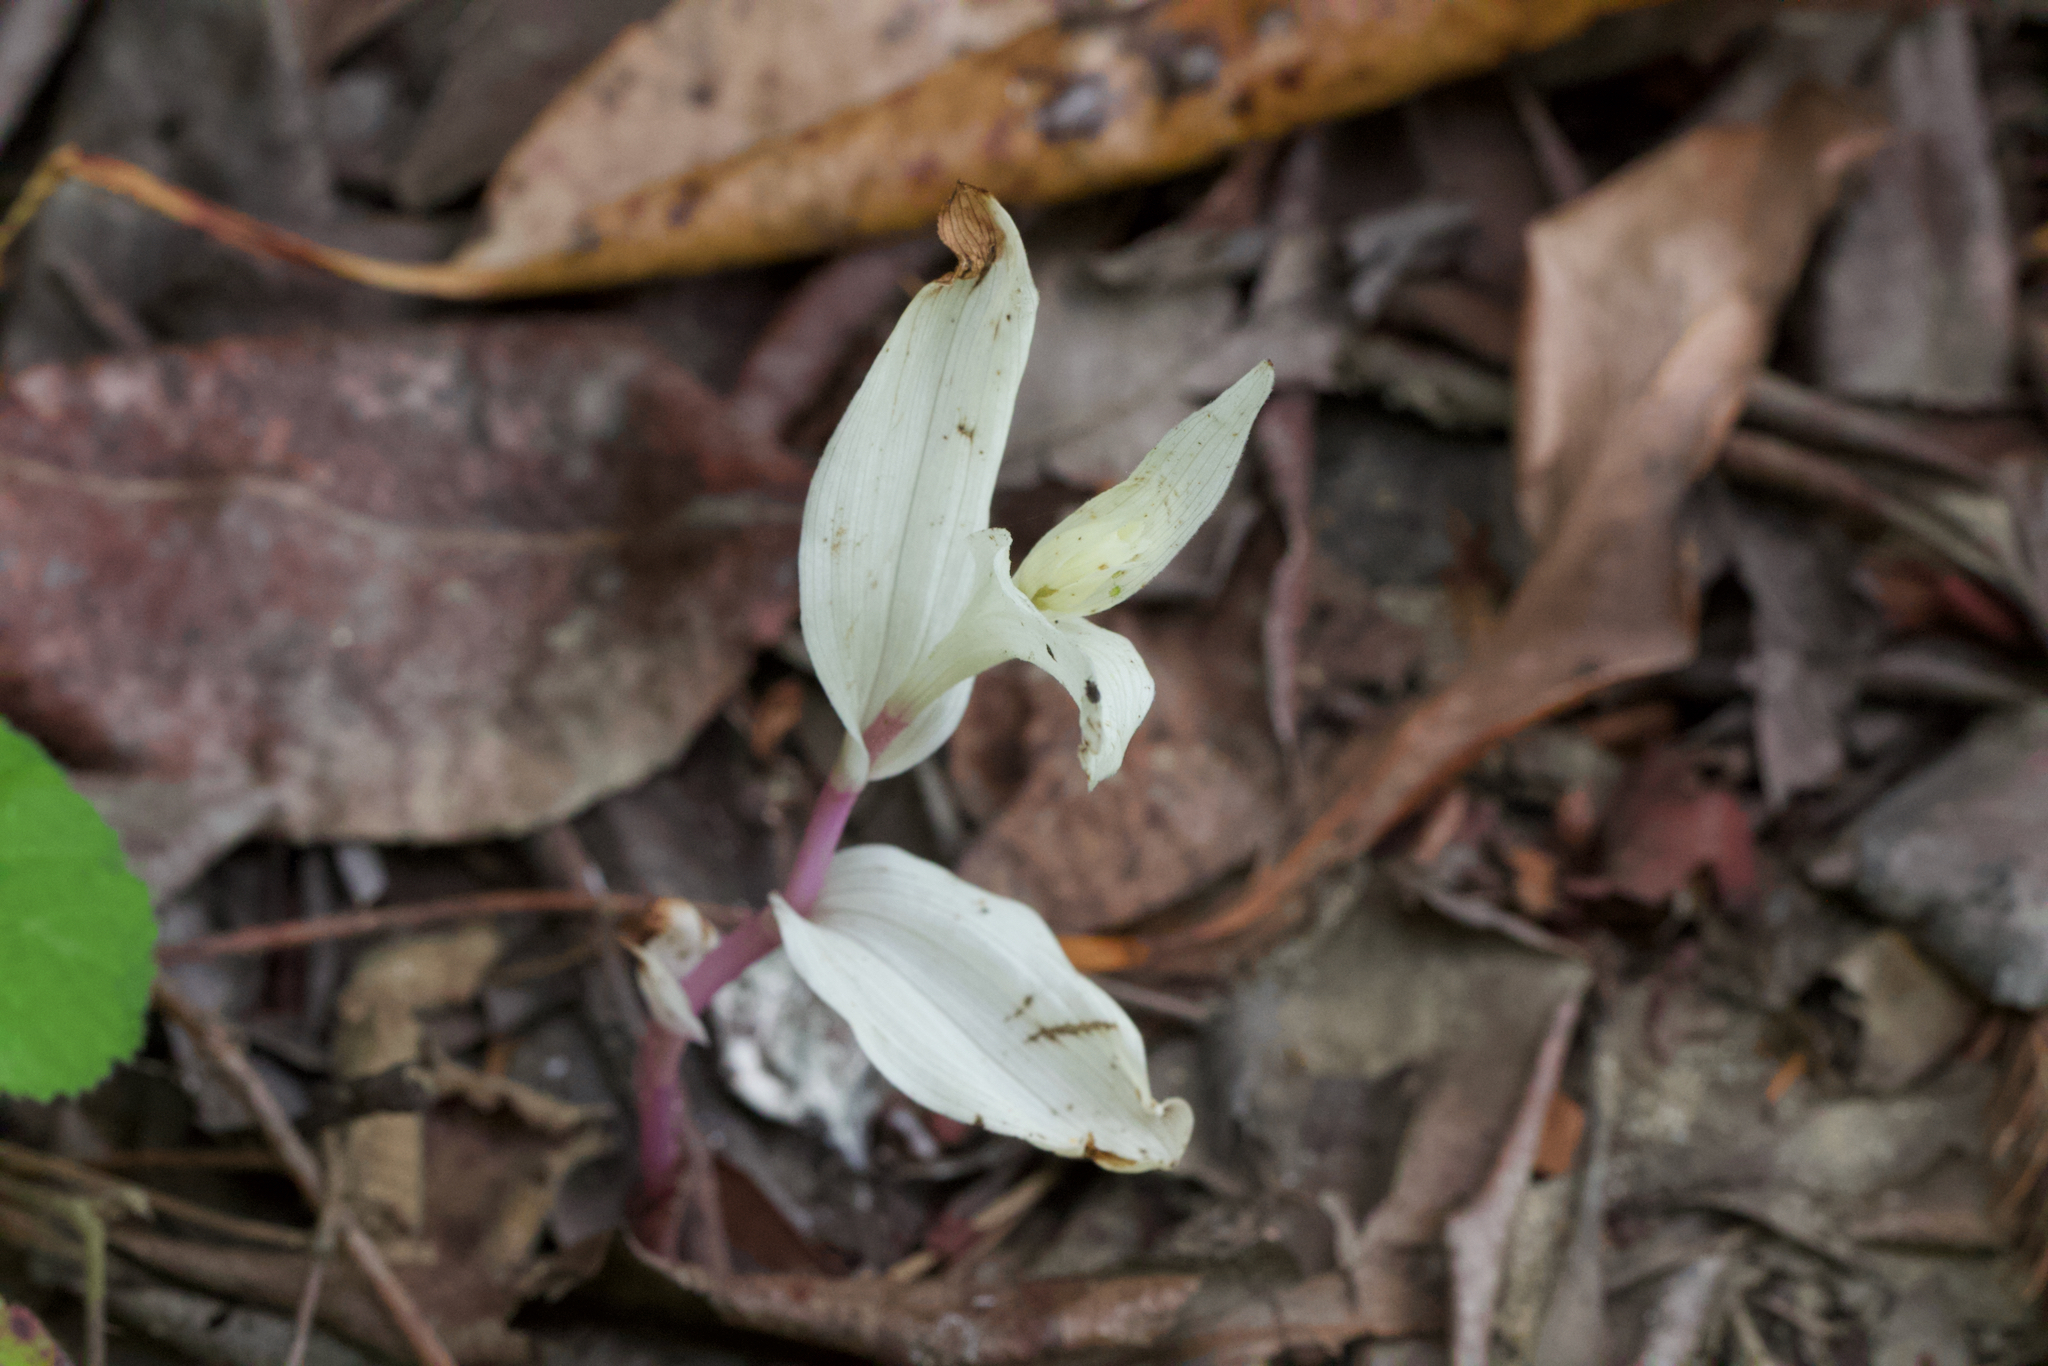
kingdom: Plantae
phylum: Tracheophyta
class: Liliopsida
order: Asparagales
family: Orchidaceae
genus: Epipactis
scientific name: Epipactis helleborine
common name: Broad-leaved helleborine
